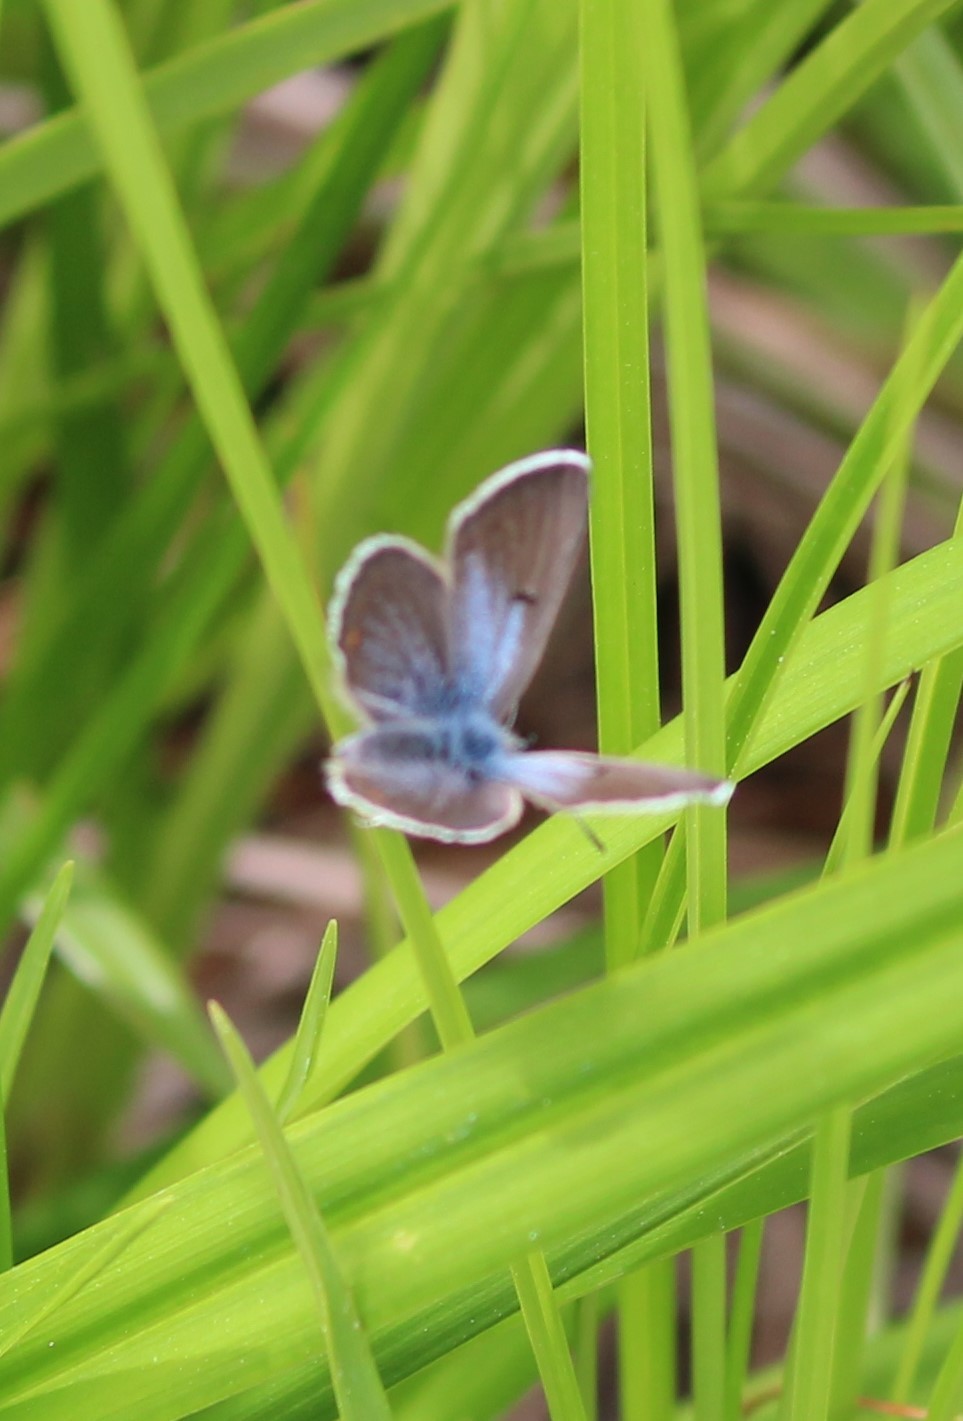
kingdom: Animalia
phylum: Arthropoda
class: Insecta
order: Lepidoptera
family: Lycaenidae
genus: Glaucopsyche
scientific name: Glaucopsyche lygdamus
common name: Silvery blue
